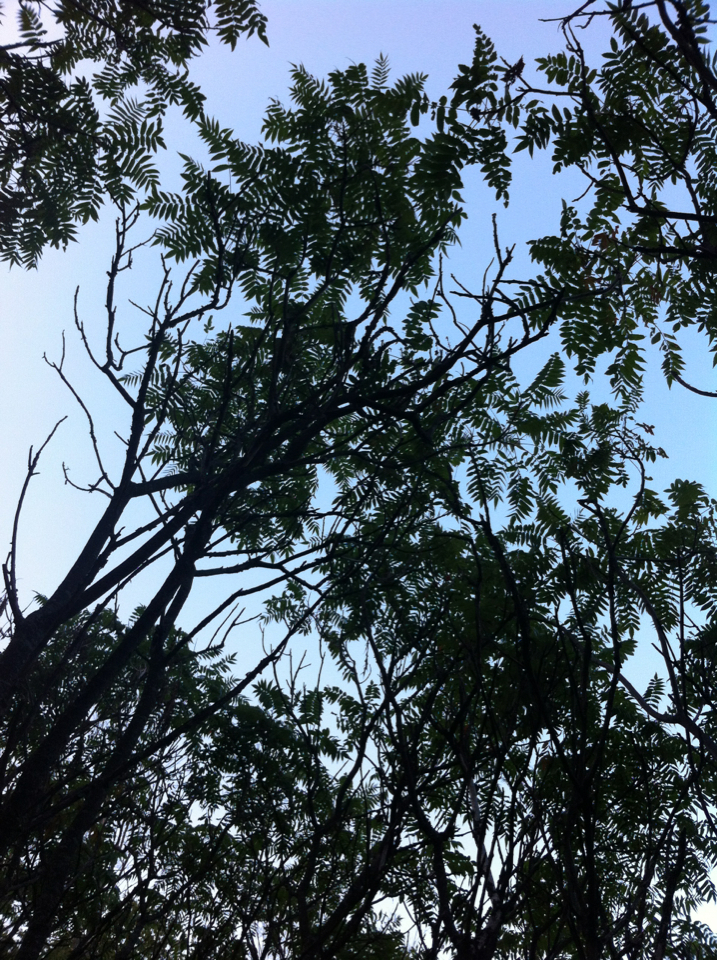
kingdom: Plantae
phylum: Tracheophyta
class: Magnoliopsida
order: Sapindales
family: Anacardiaceae
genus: Rhus
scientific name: Rhus typhina
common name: Staghorn sumac
